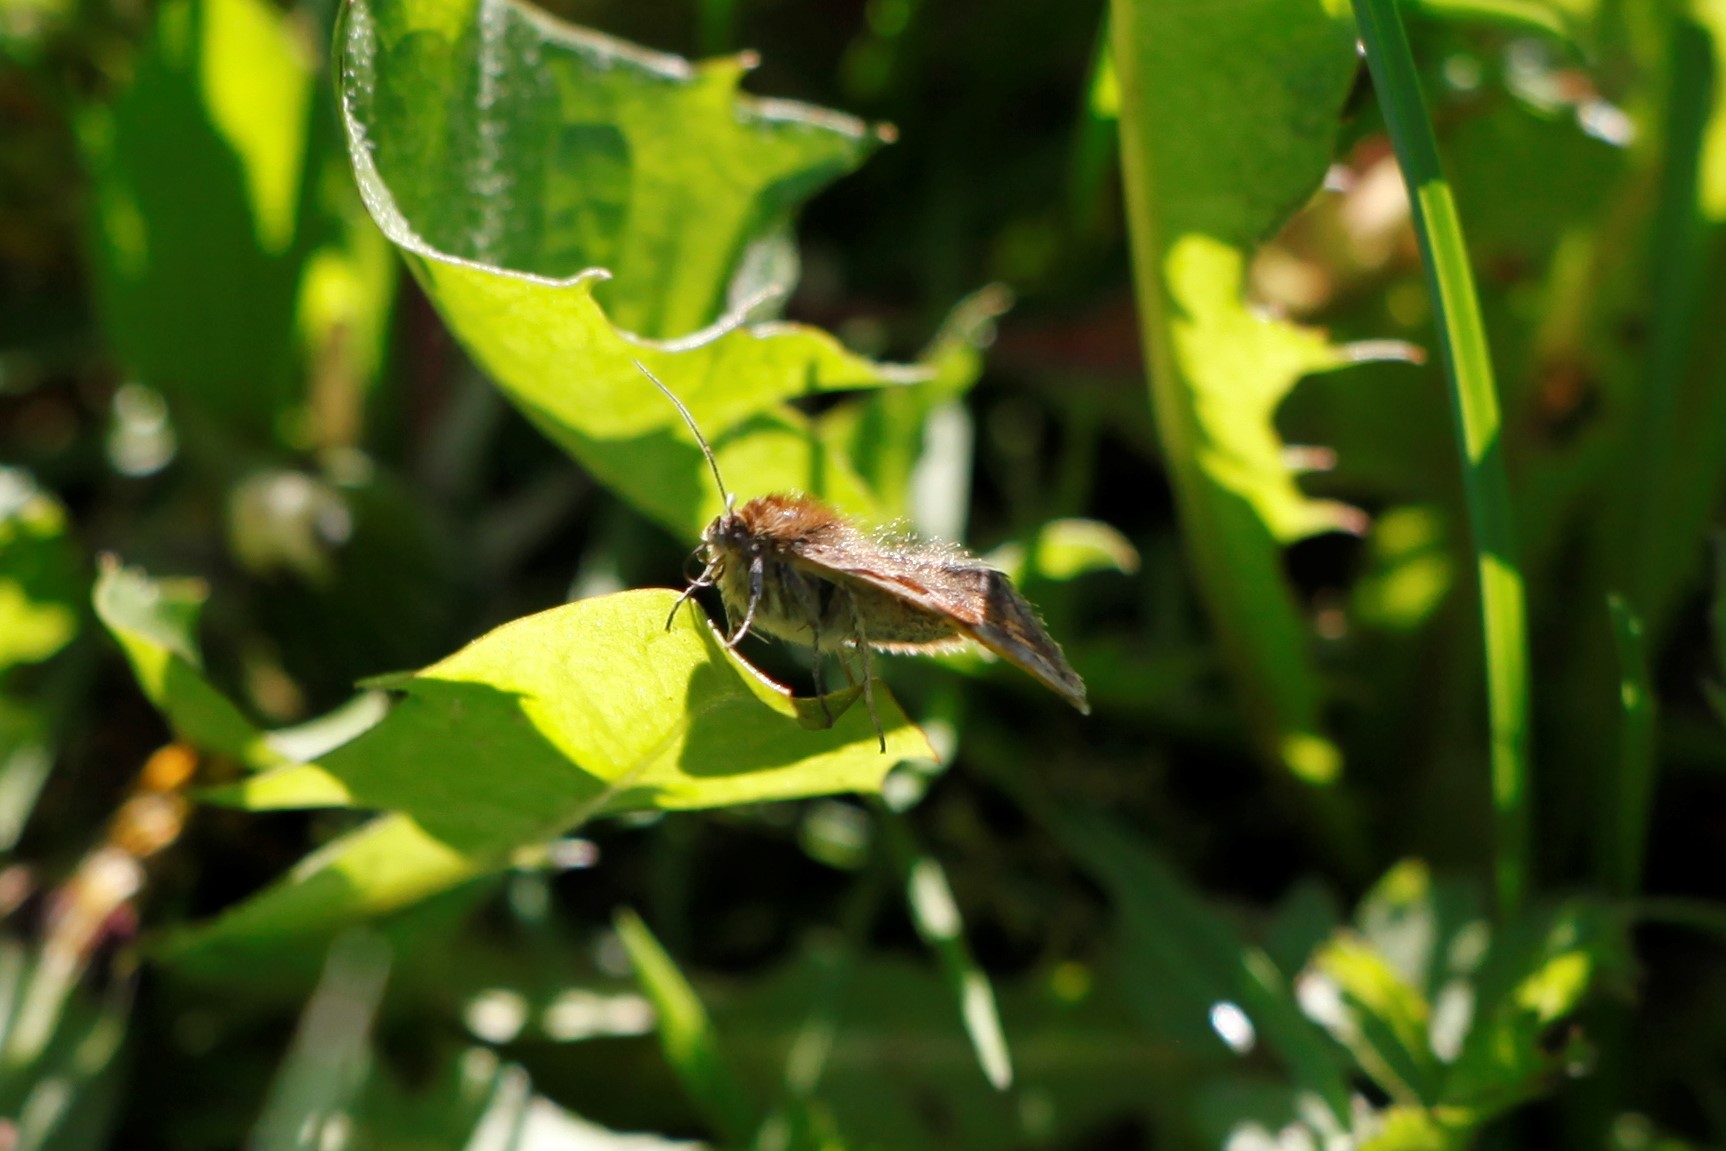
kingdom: Animalia
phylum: Arthropoda
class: Insecta
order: Lepidoptera
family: Erebidae
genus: Euclidia
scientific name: Euclidia glyphica
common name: Burnet companion
